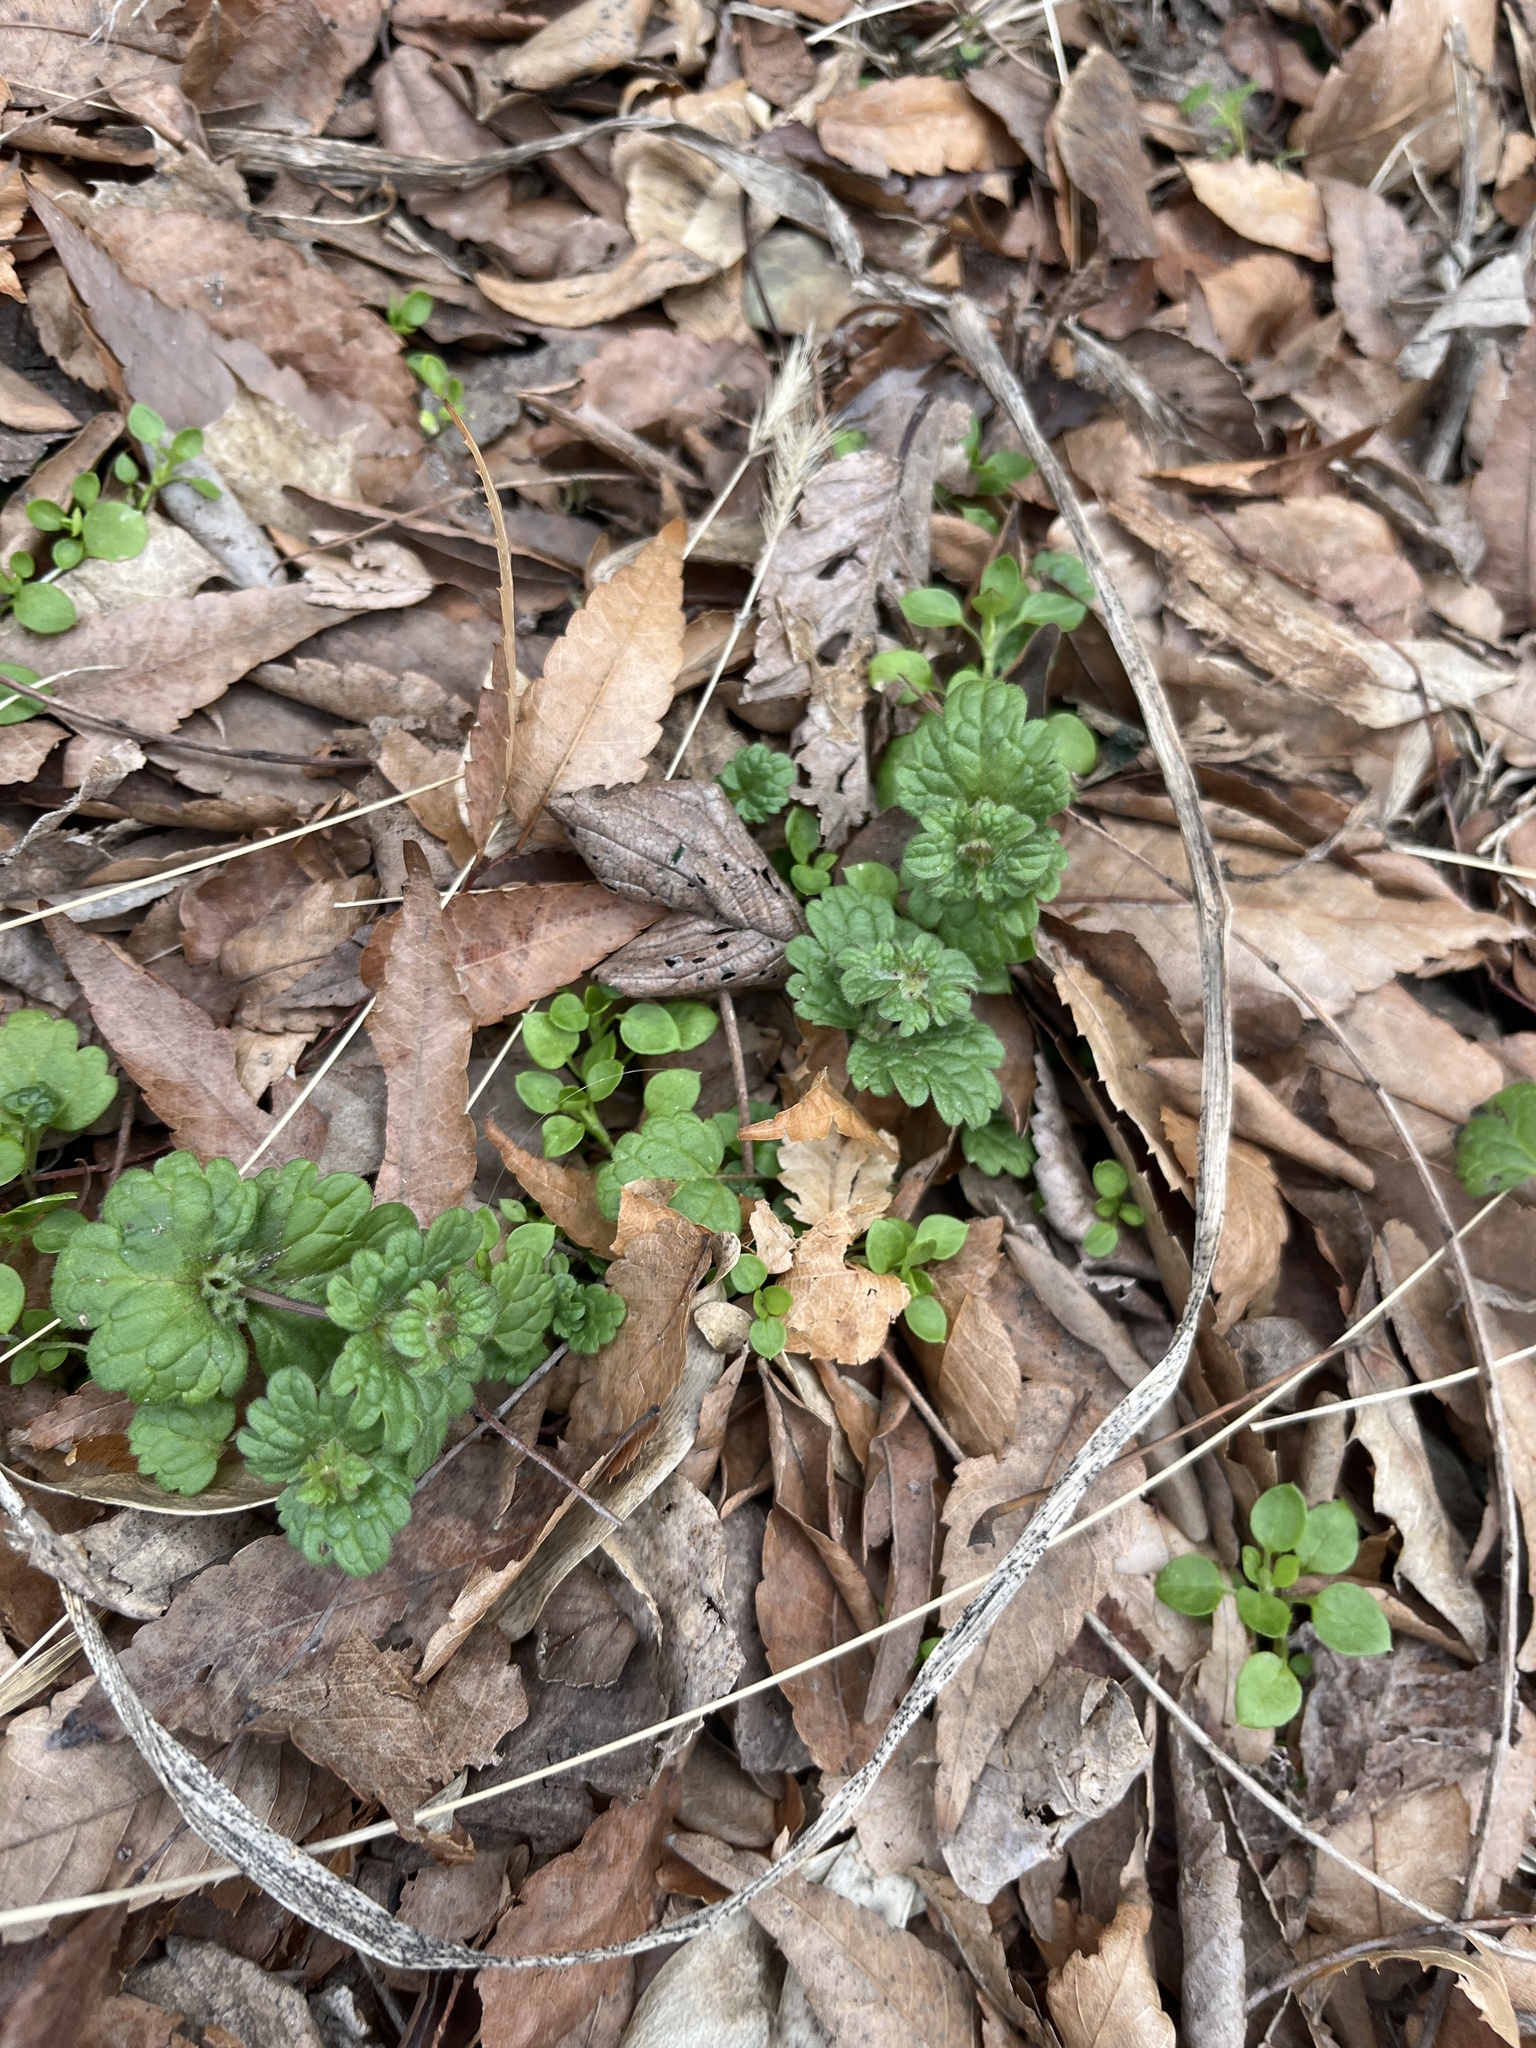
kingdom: Plantae
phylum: Tracheophyta
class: Magnoliopsida
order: Lamiales
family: Lamiaceae
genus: Lamium
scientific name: Lamium amplexicaule
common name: Henbit dead-nettle
